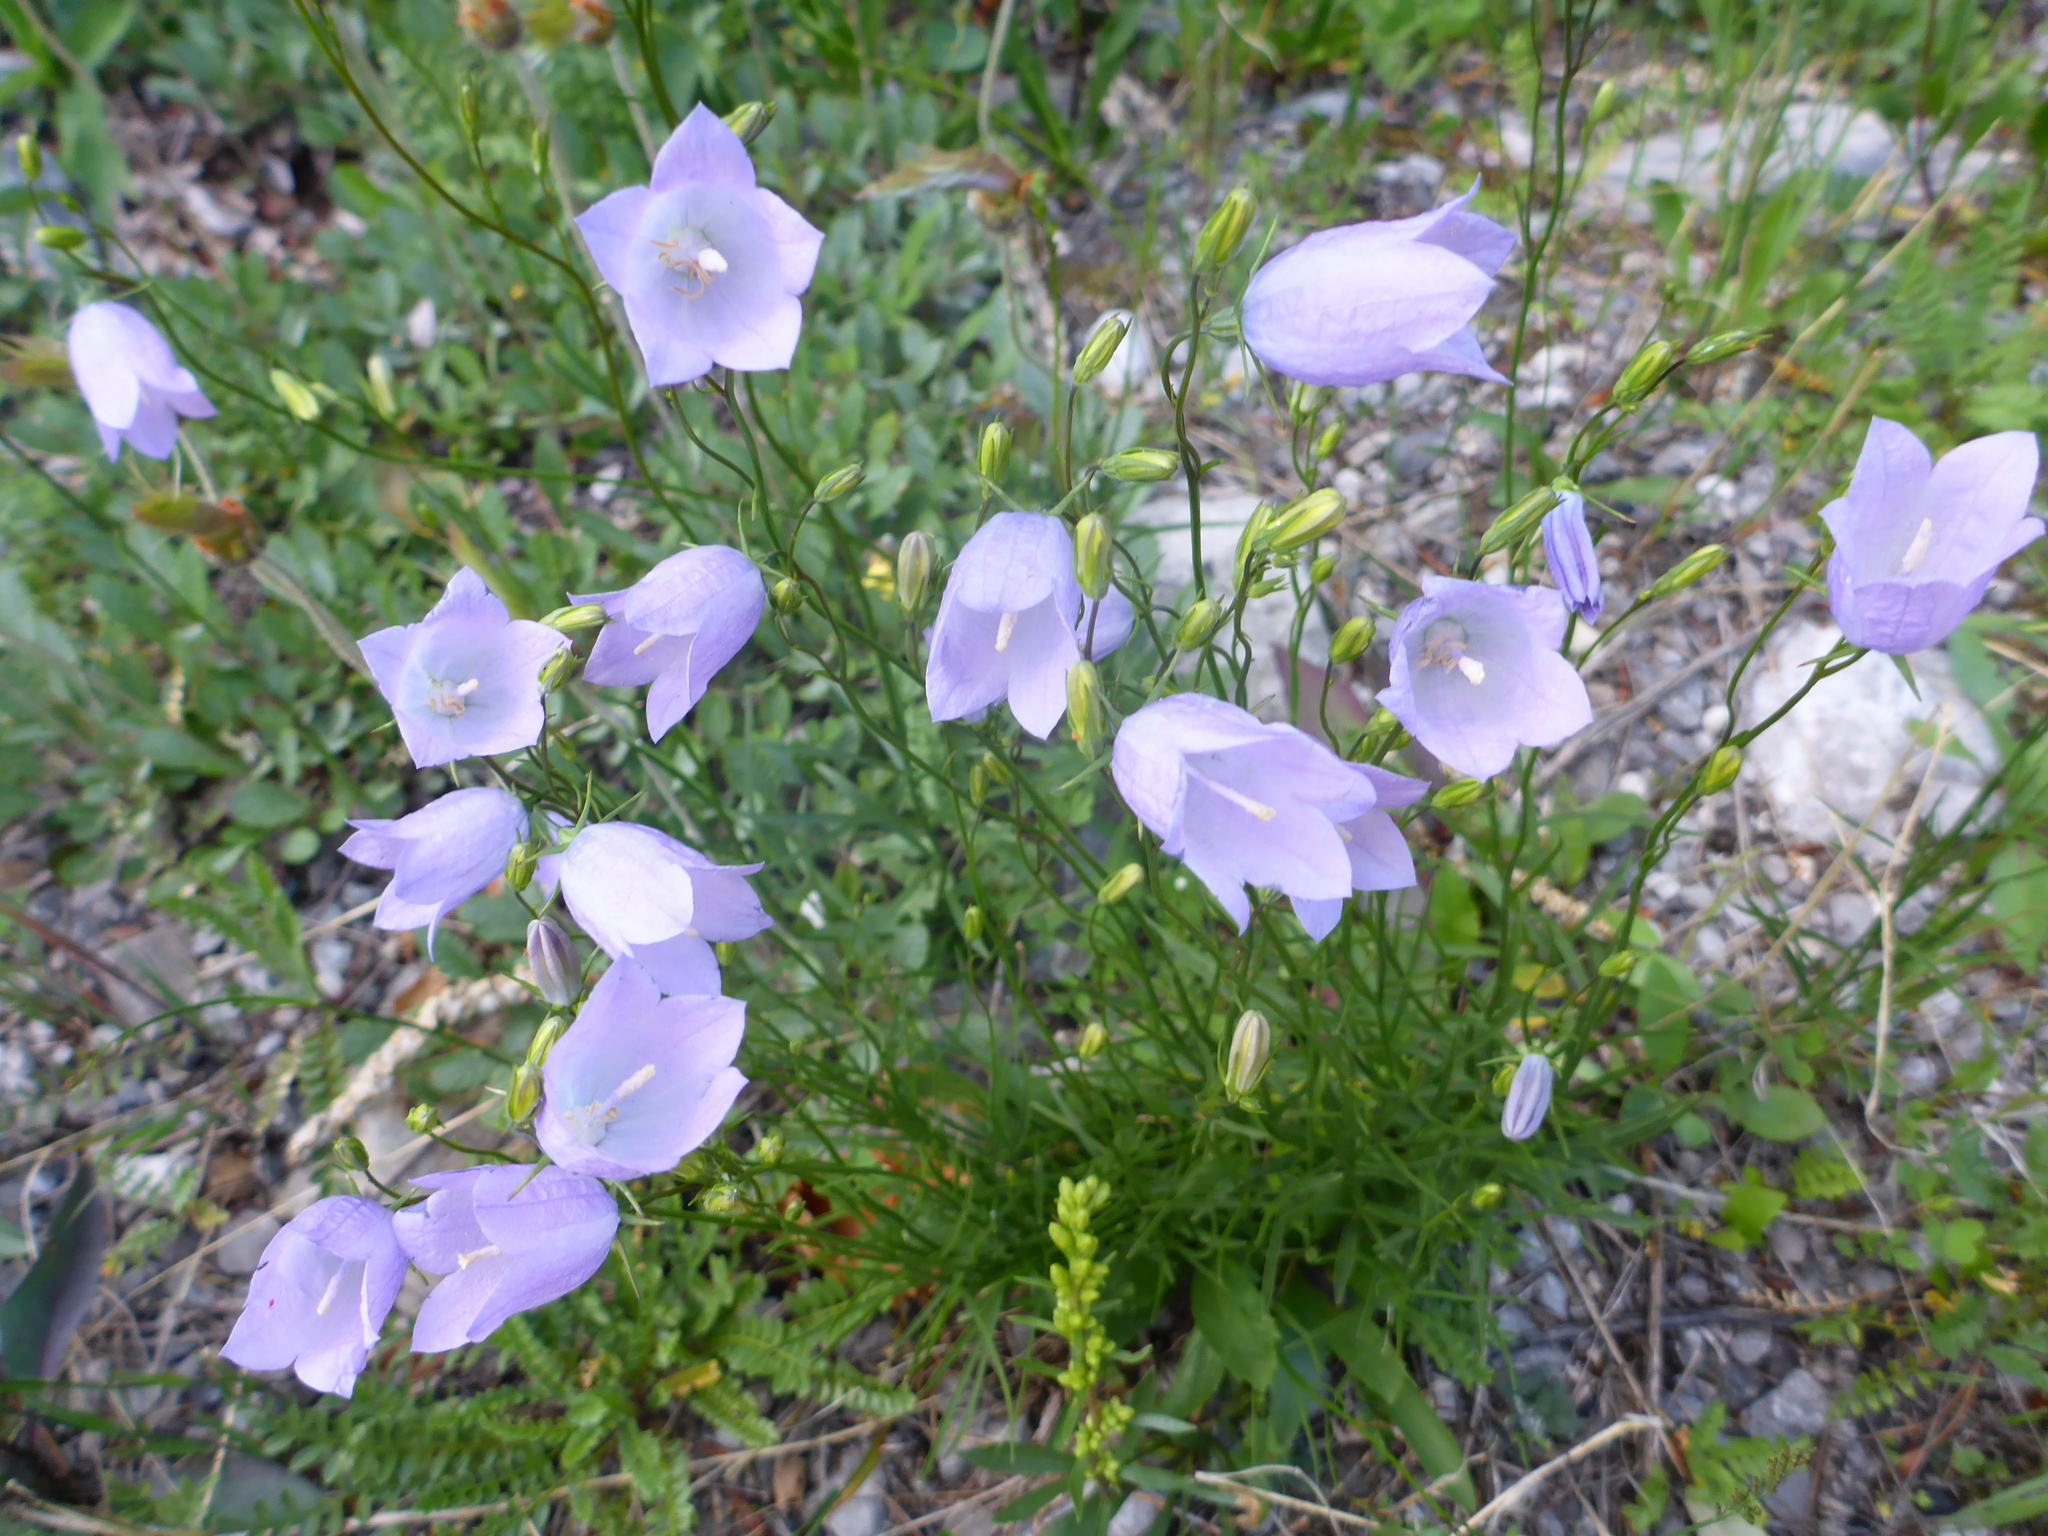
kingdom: Plantae
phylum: Tracheophyta
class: Magnoliopsida
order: Asterales
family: Campanulaceae
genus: Campanula
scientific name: Campanula alaskana
